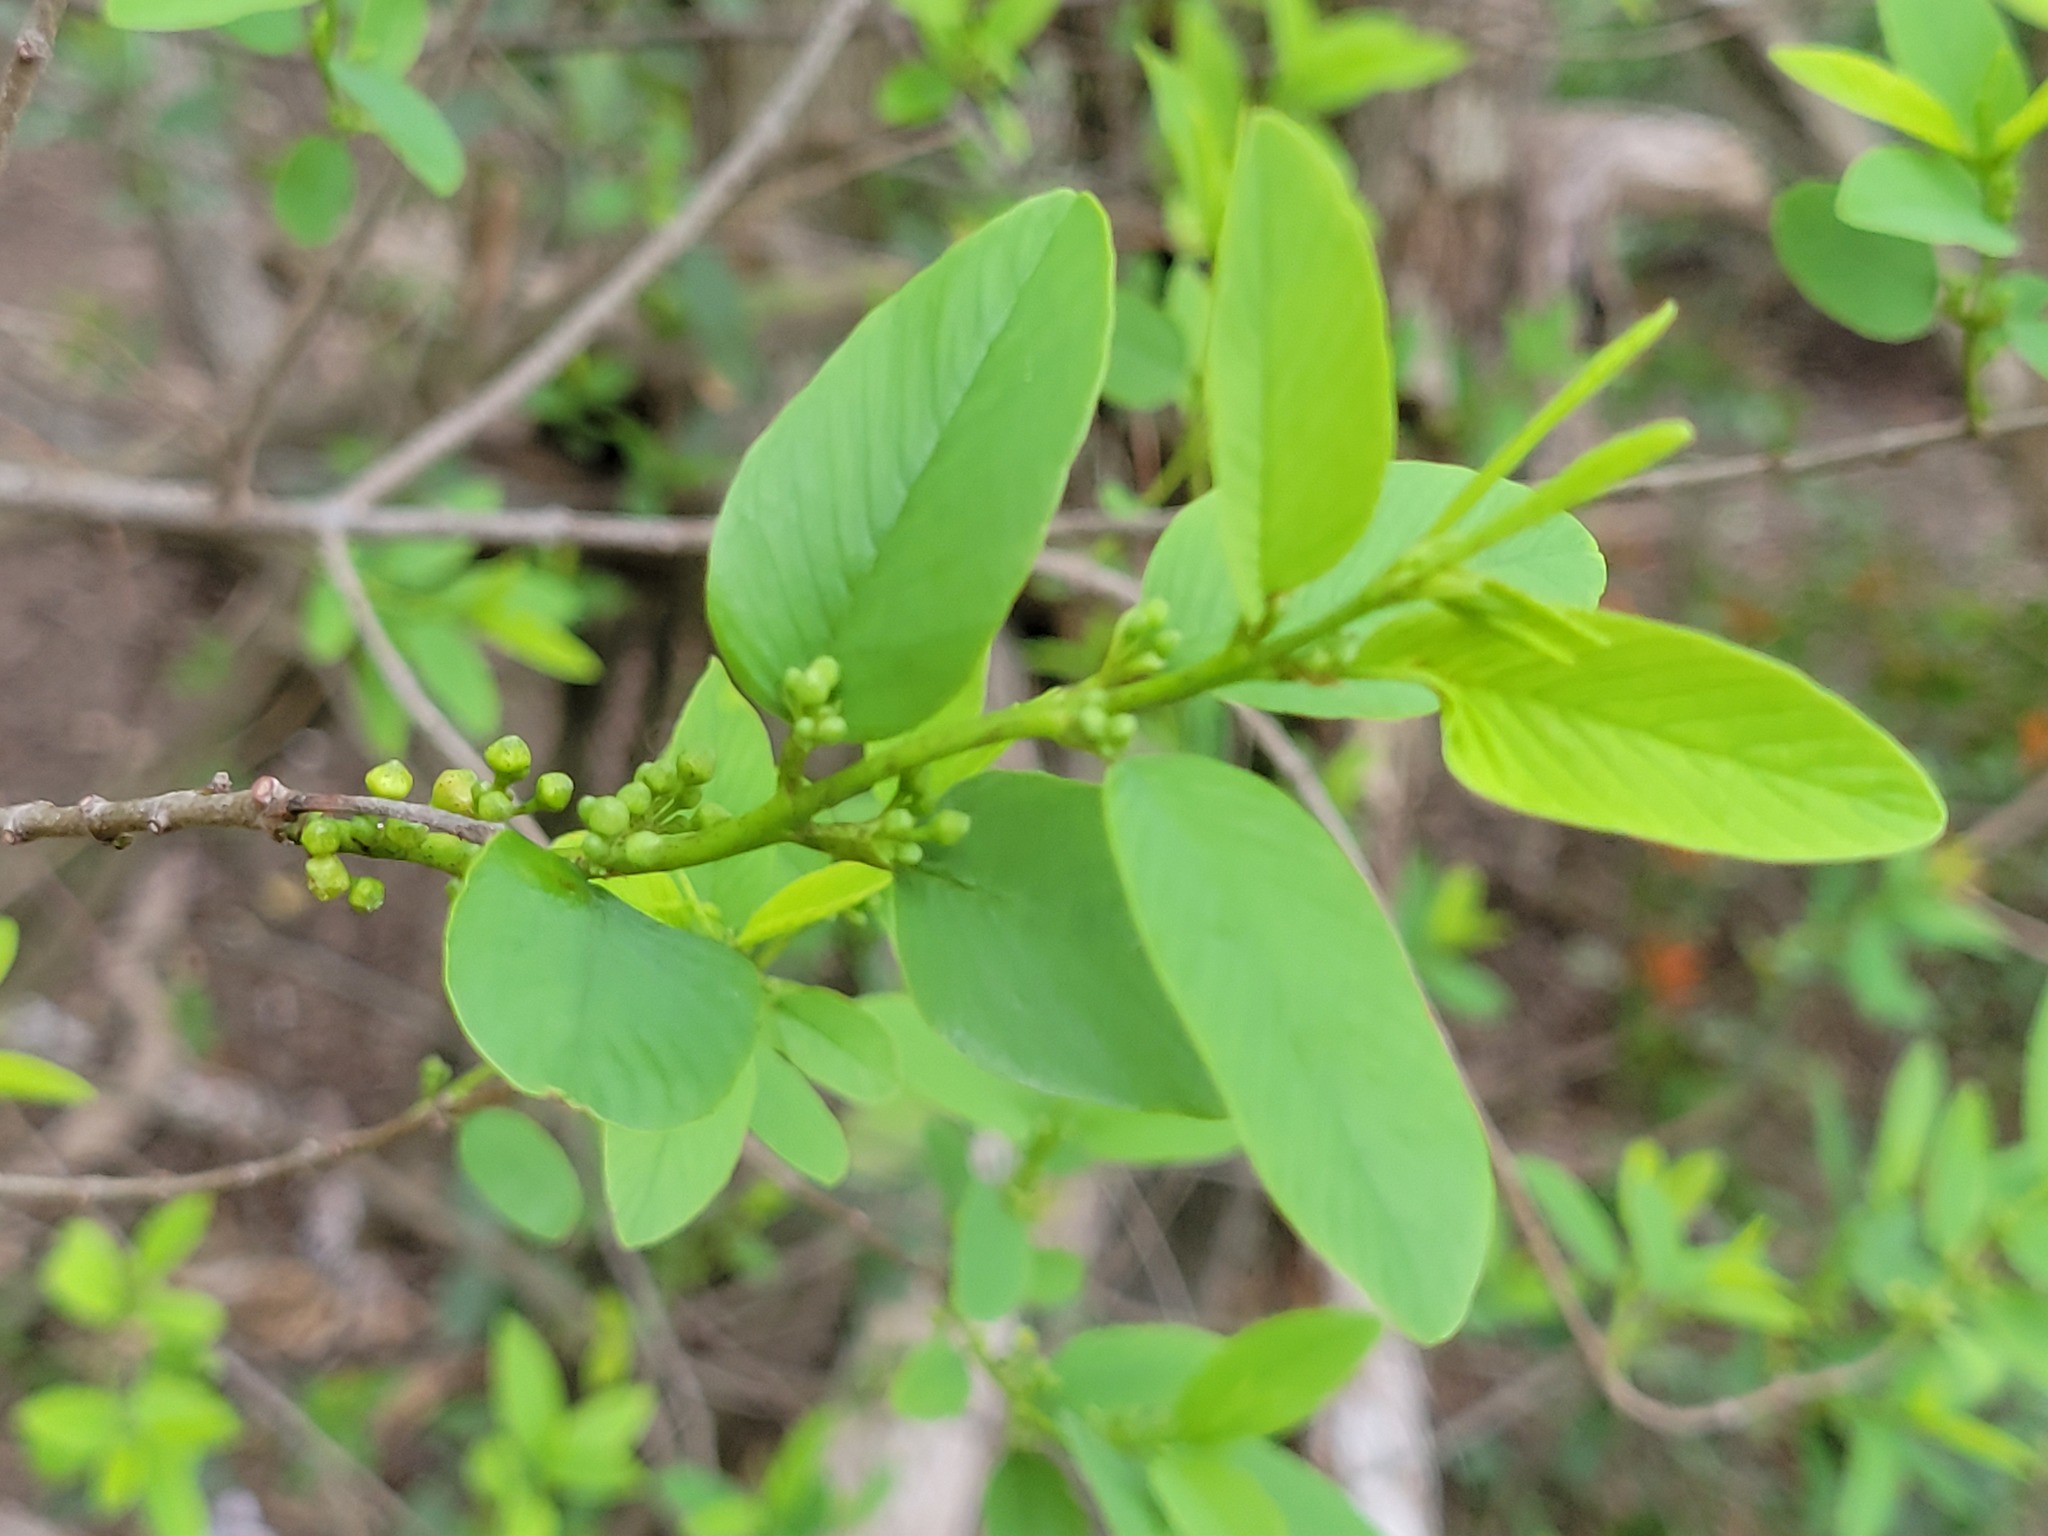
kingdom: Plantae
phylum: Tracheophyta
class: Magnoliopsida
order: Rosales
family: Rhamnaceae
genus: Karwinskia
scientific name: Karwinskia humboldtiana
